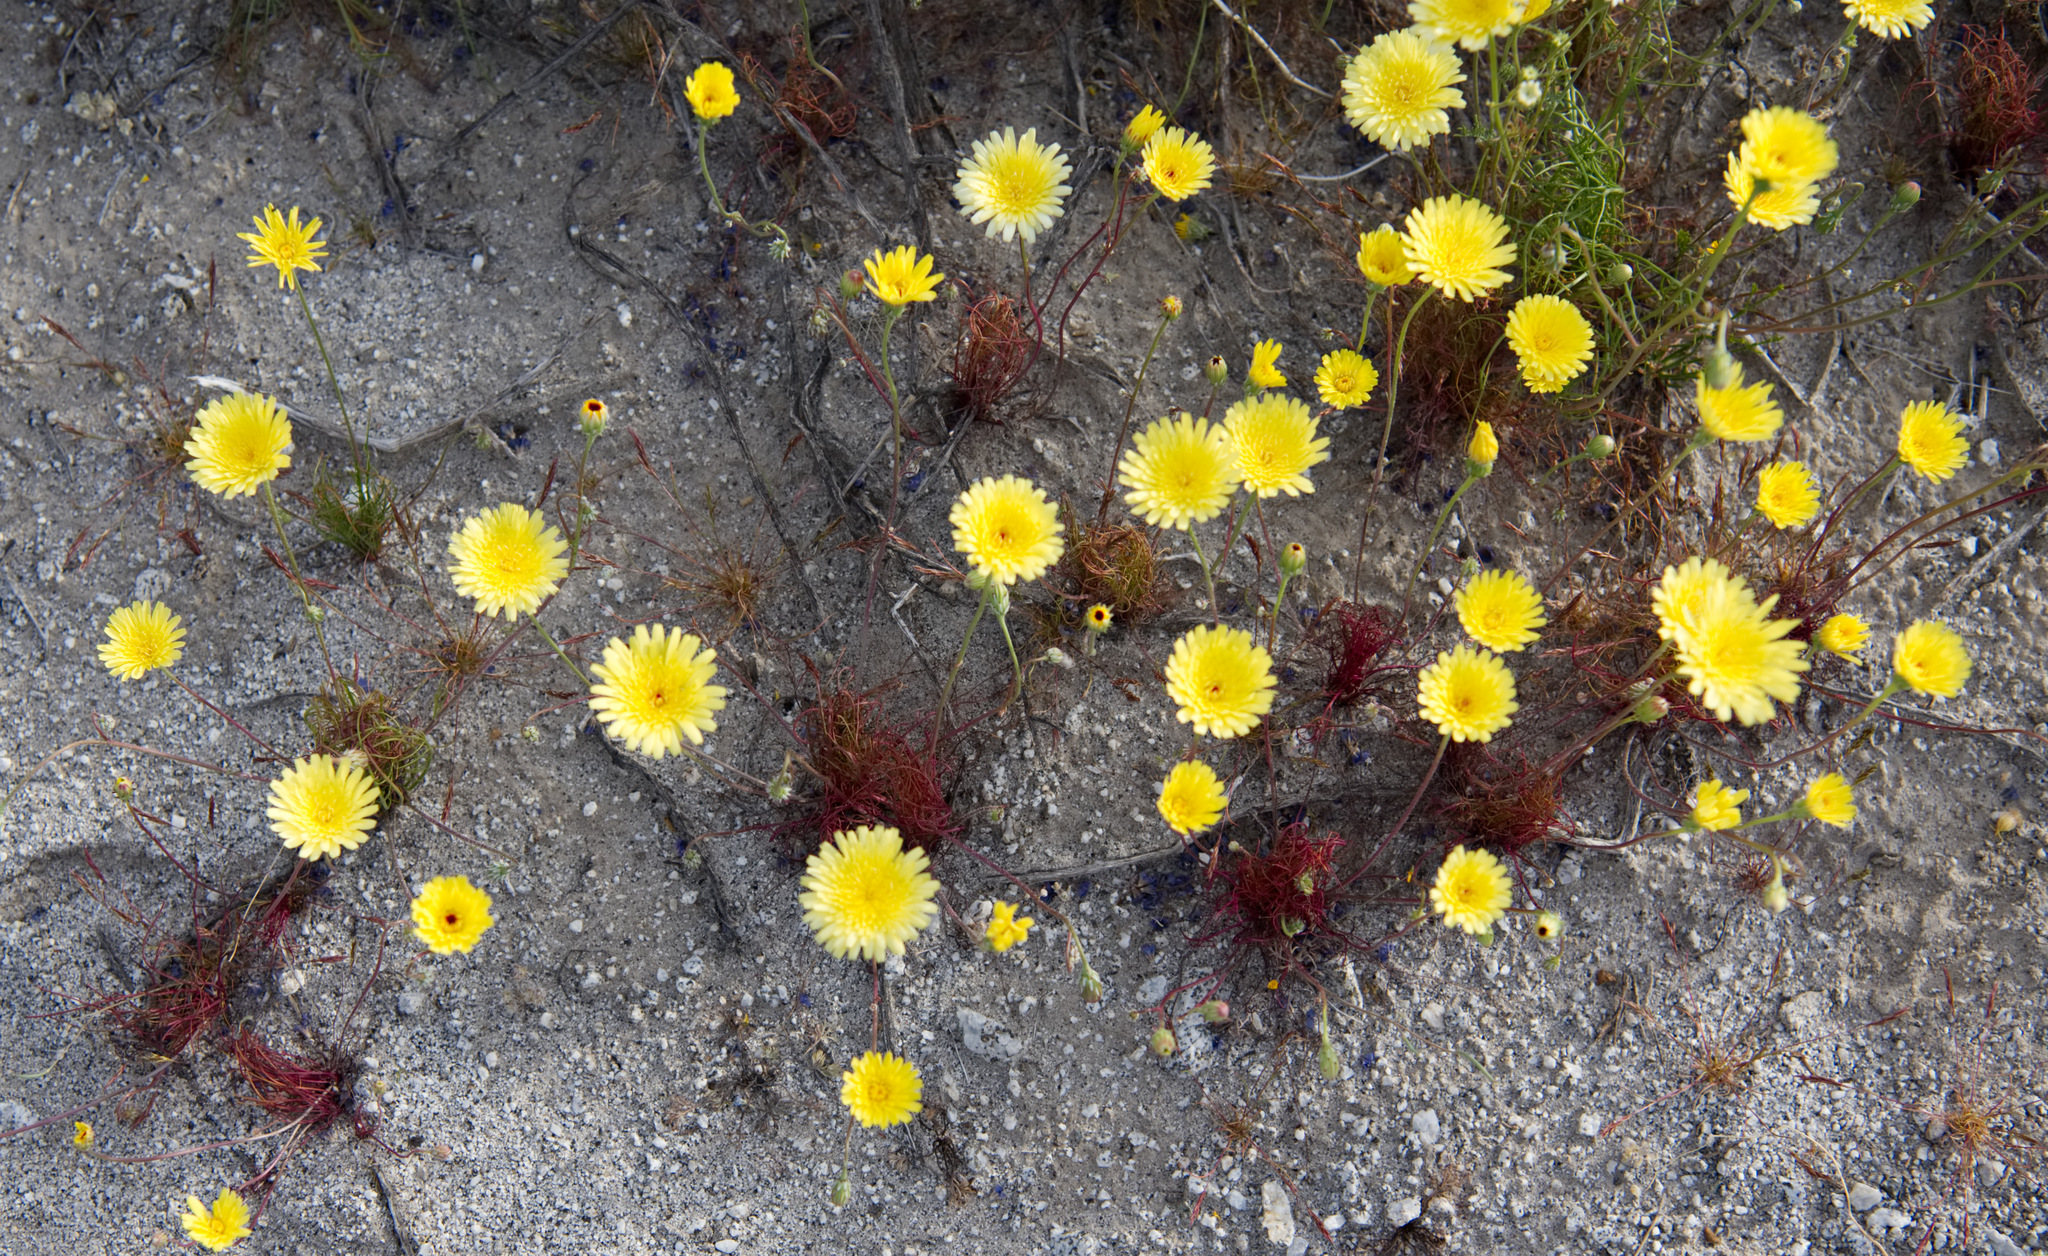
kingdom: Plantae
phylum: Tracheophyta
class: Magnoliopsida
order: Asterales
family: Asteraceae
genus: Malacothrix
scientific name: Malacothrix glabrata
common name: Smooth desert-dandelion
